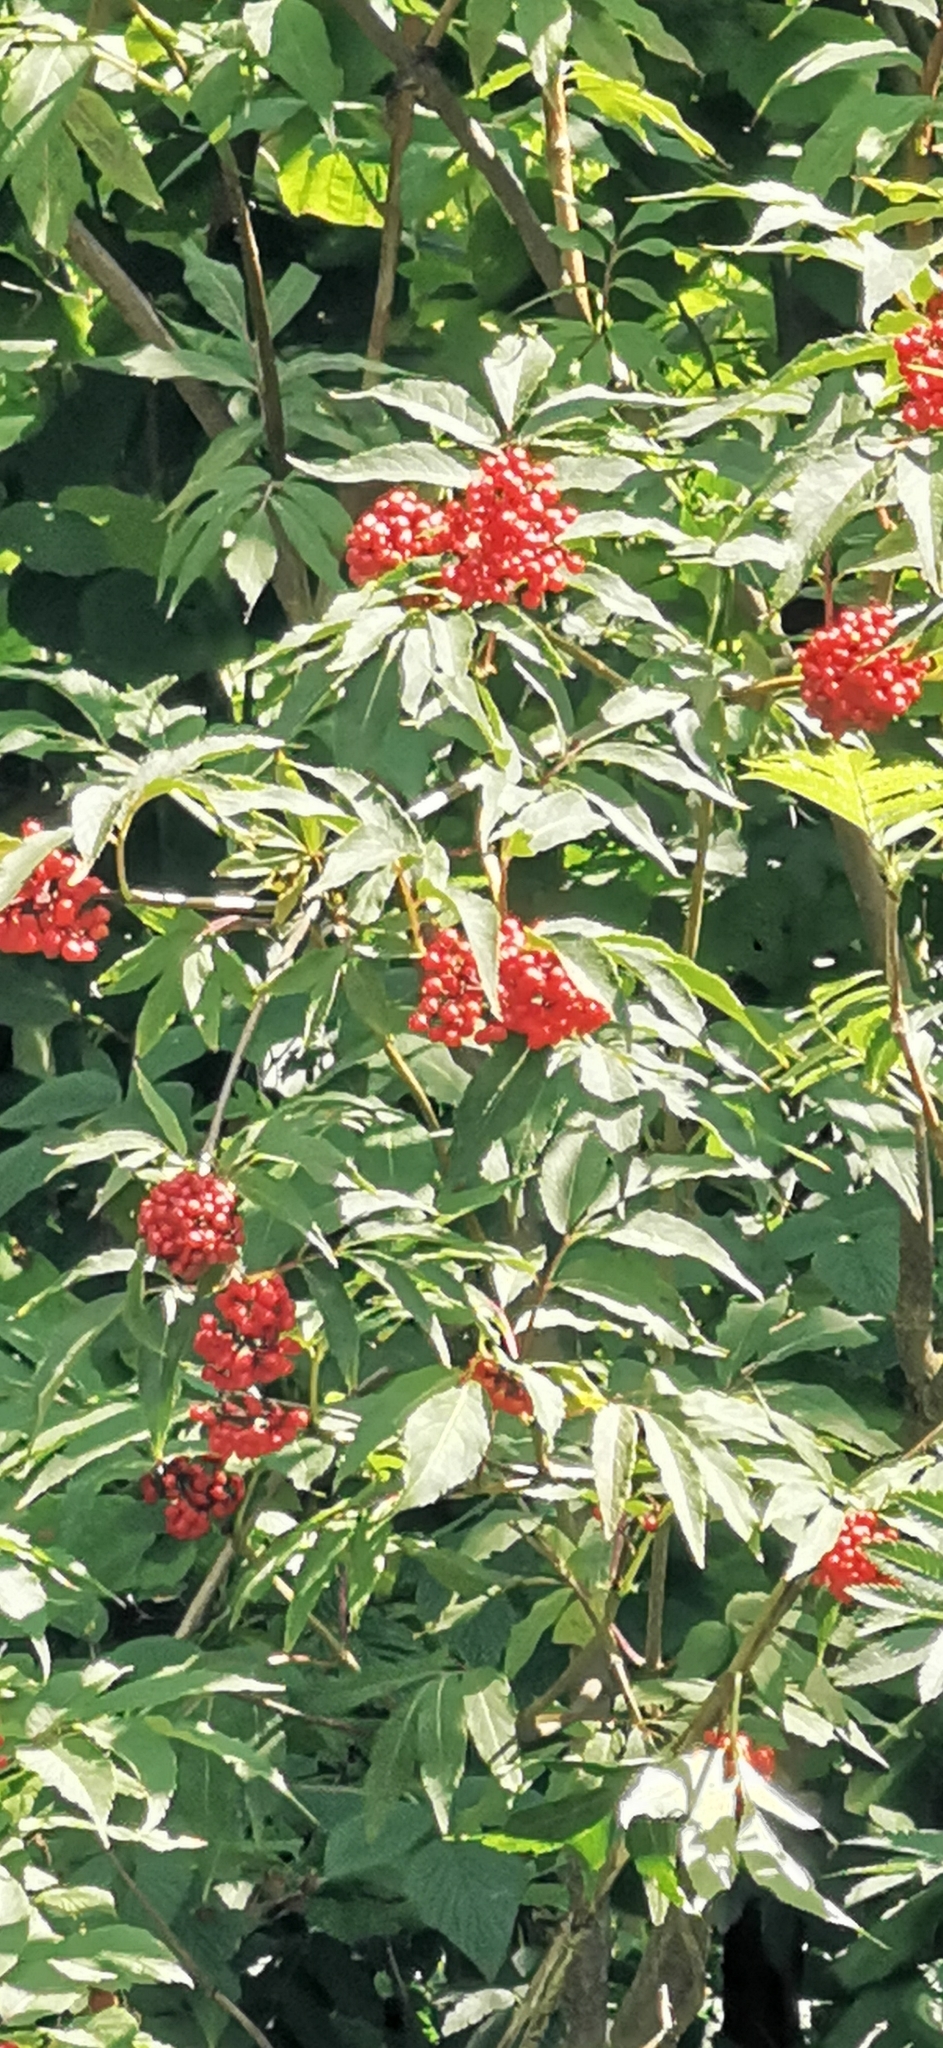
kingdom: Plantae
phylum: Tracheophyta
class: Magnoliopsida
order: Dipsacales
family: Viburnaceae
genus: Sambucus
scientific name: Sambucus racemosa
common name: Red-berried elder
